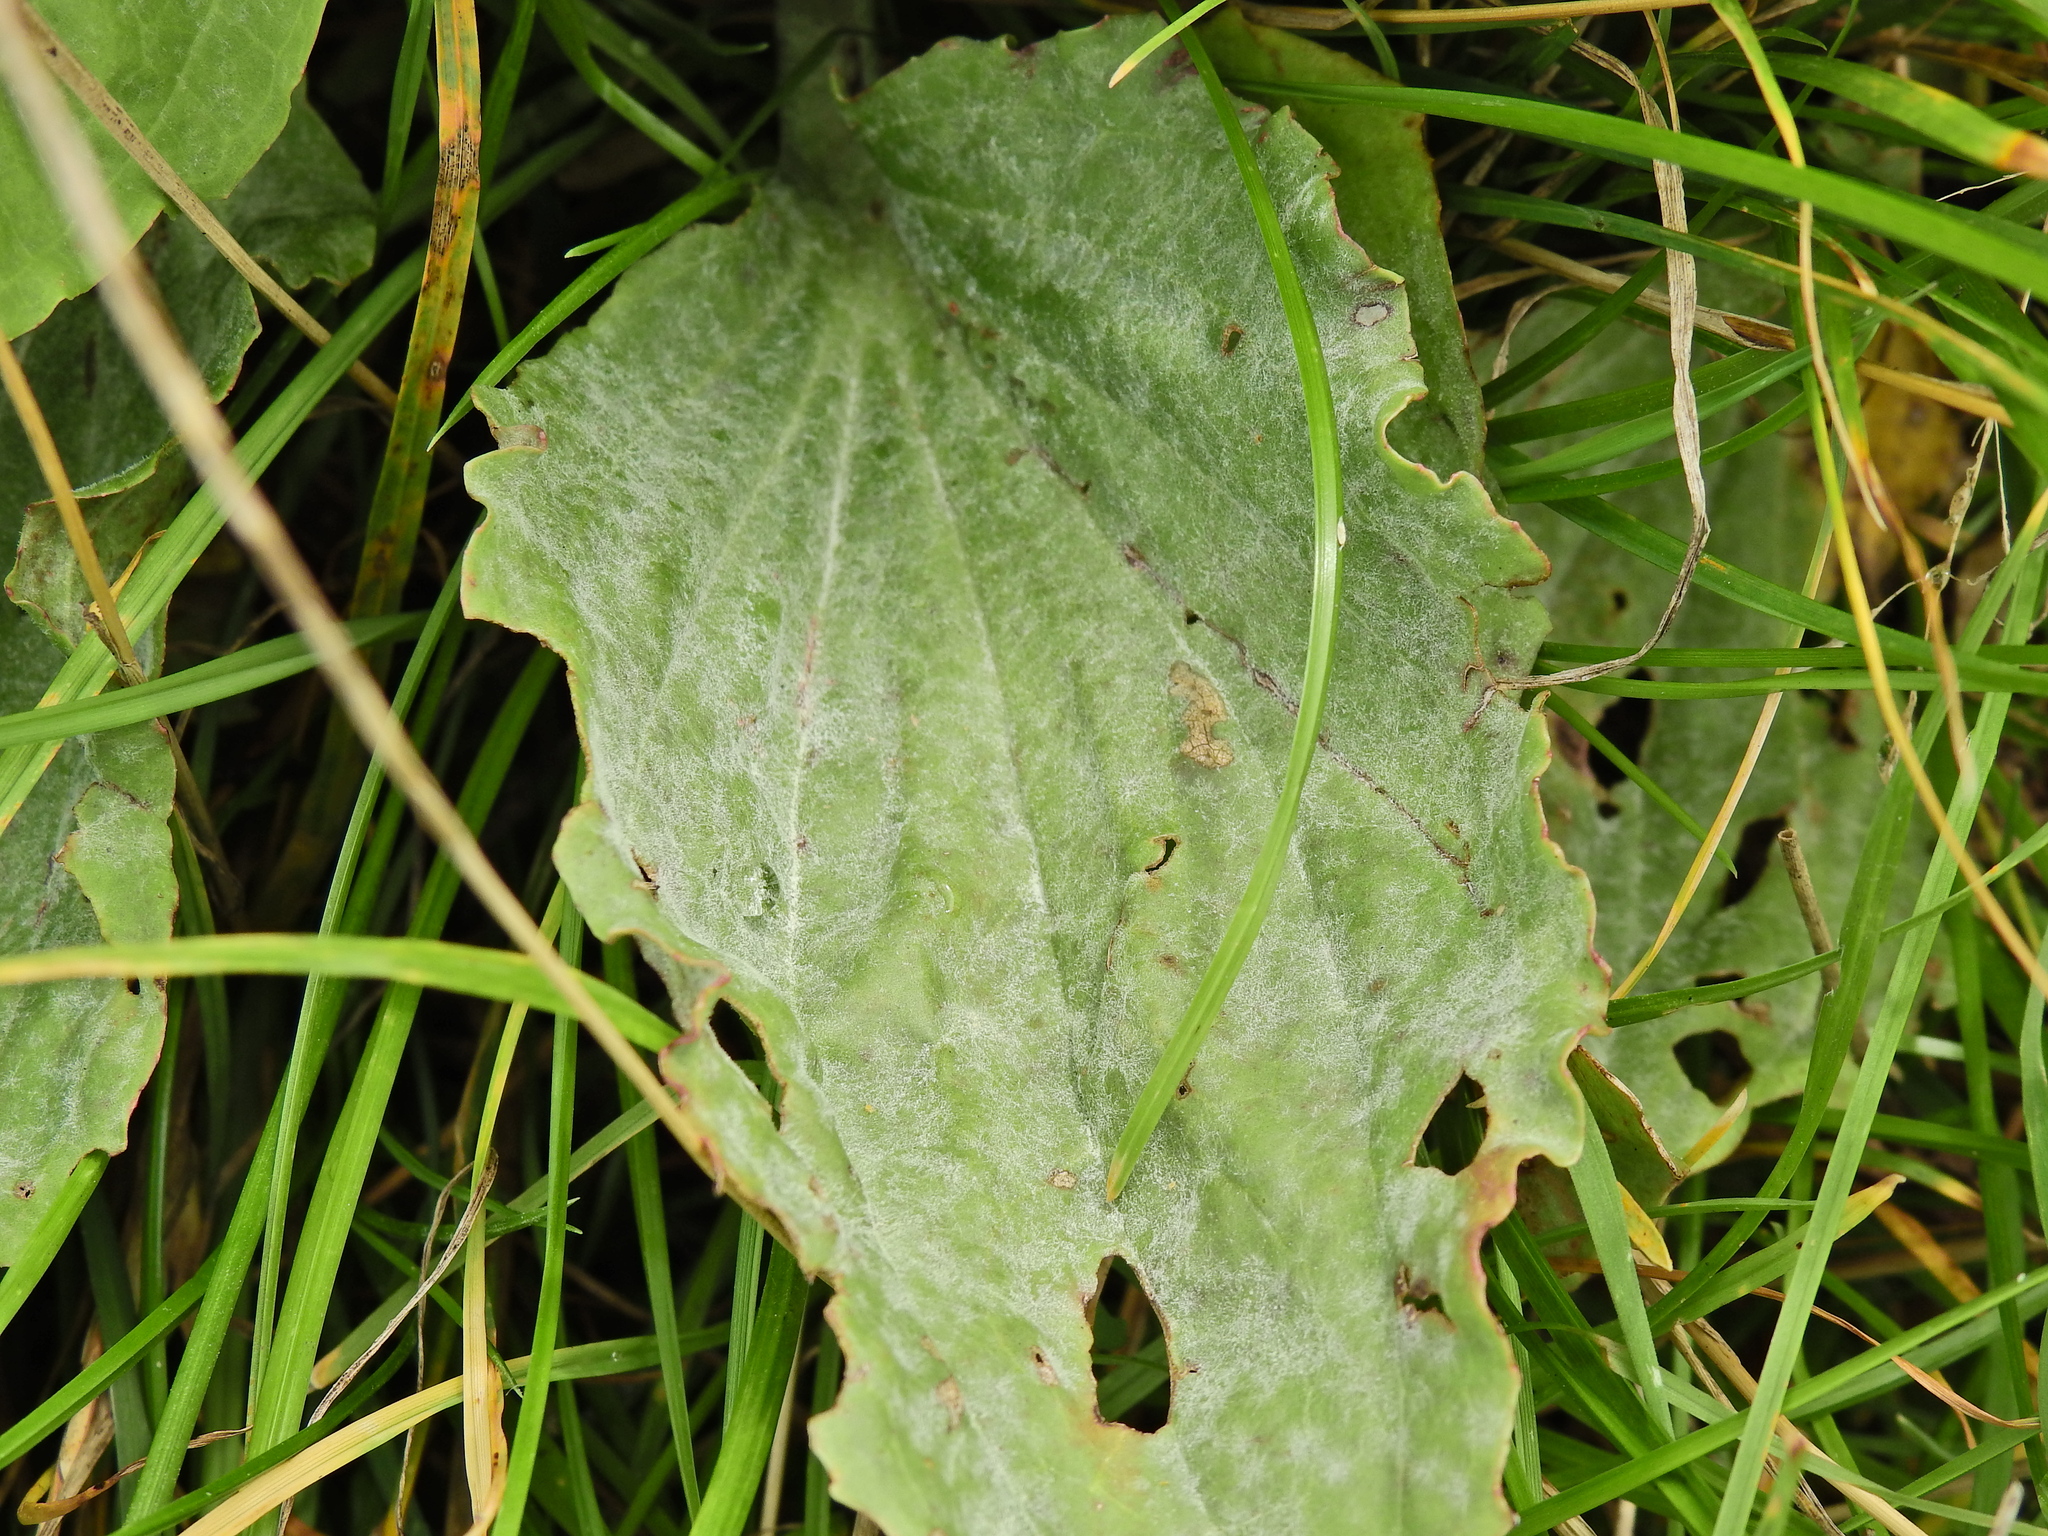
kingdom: Fungi
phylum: Ascomycota
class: Leotiomycetes
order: Helotiales
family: Erysiphaceae
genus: Golovinomyces
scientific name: Golovinomyces sordidus
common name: Plantain mildew
